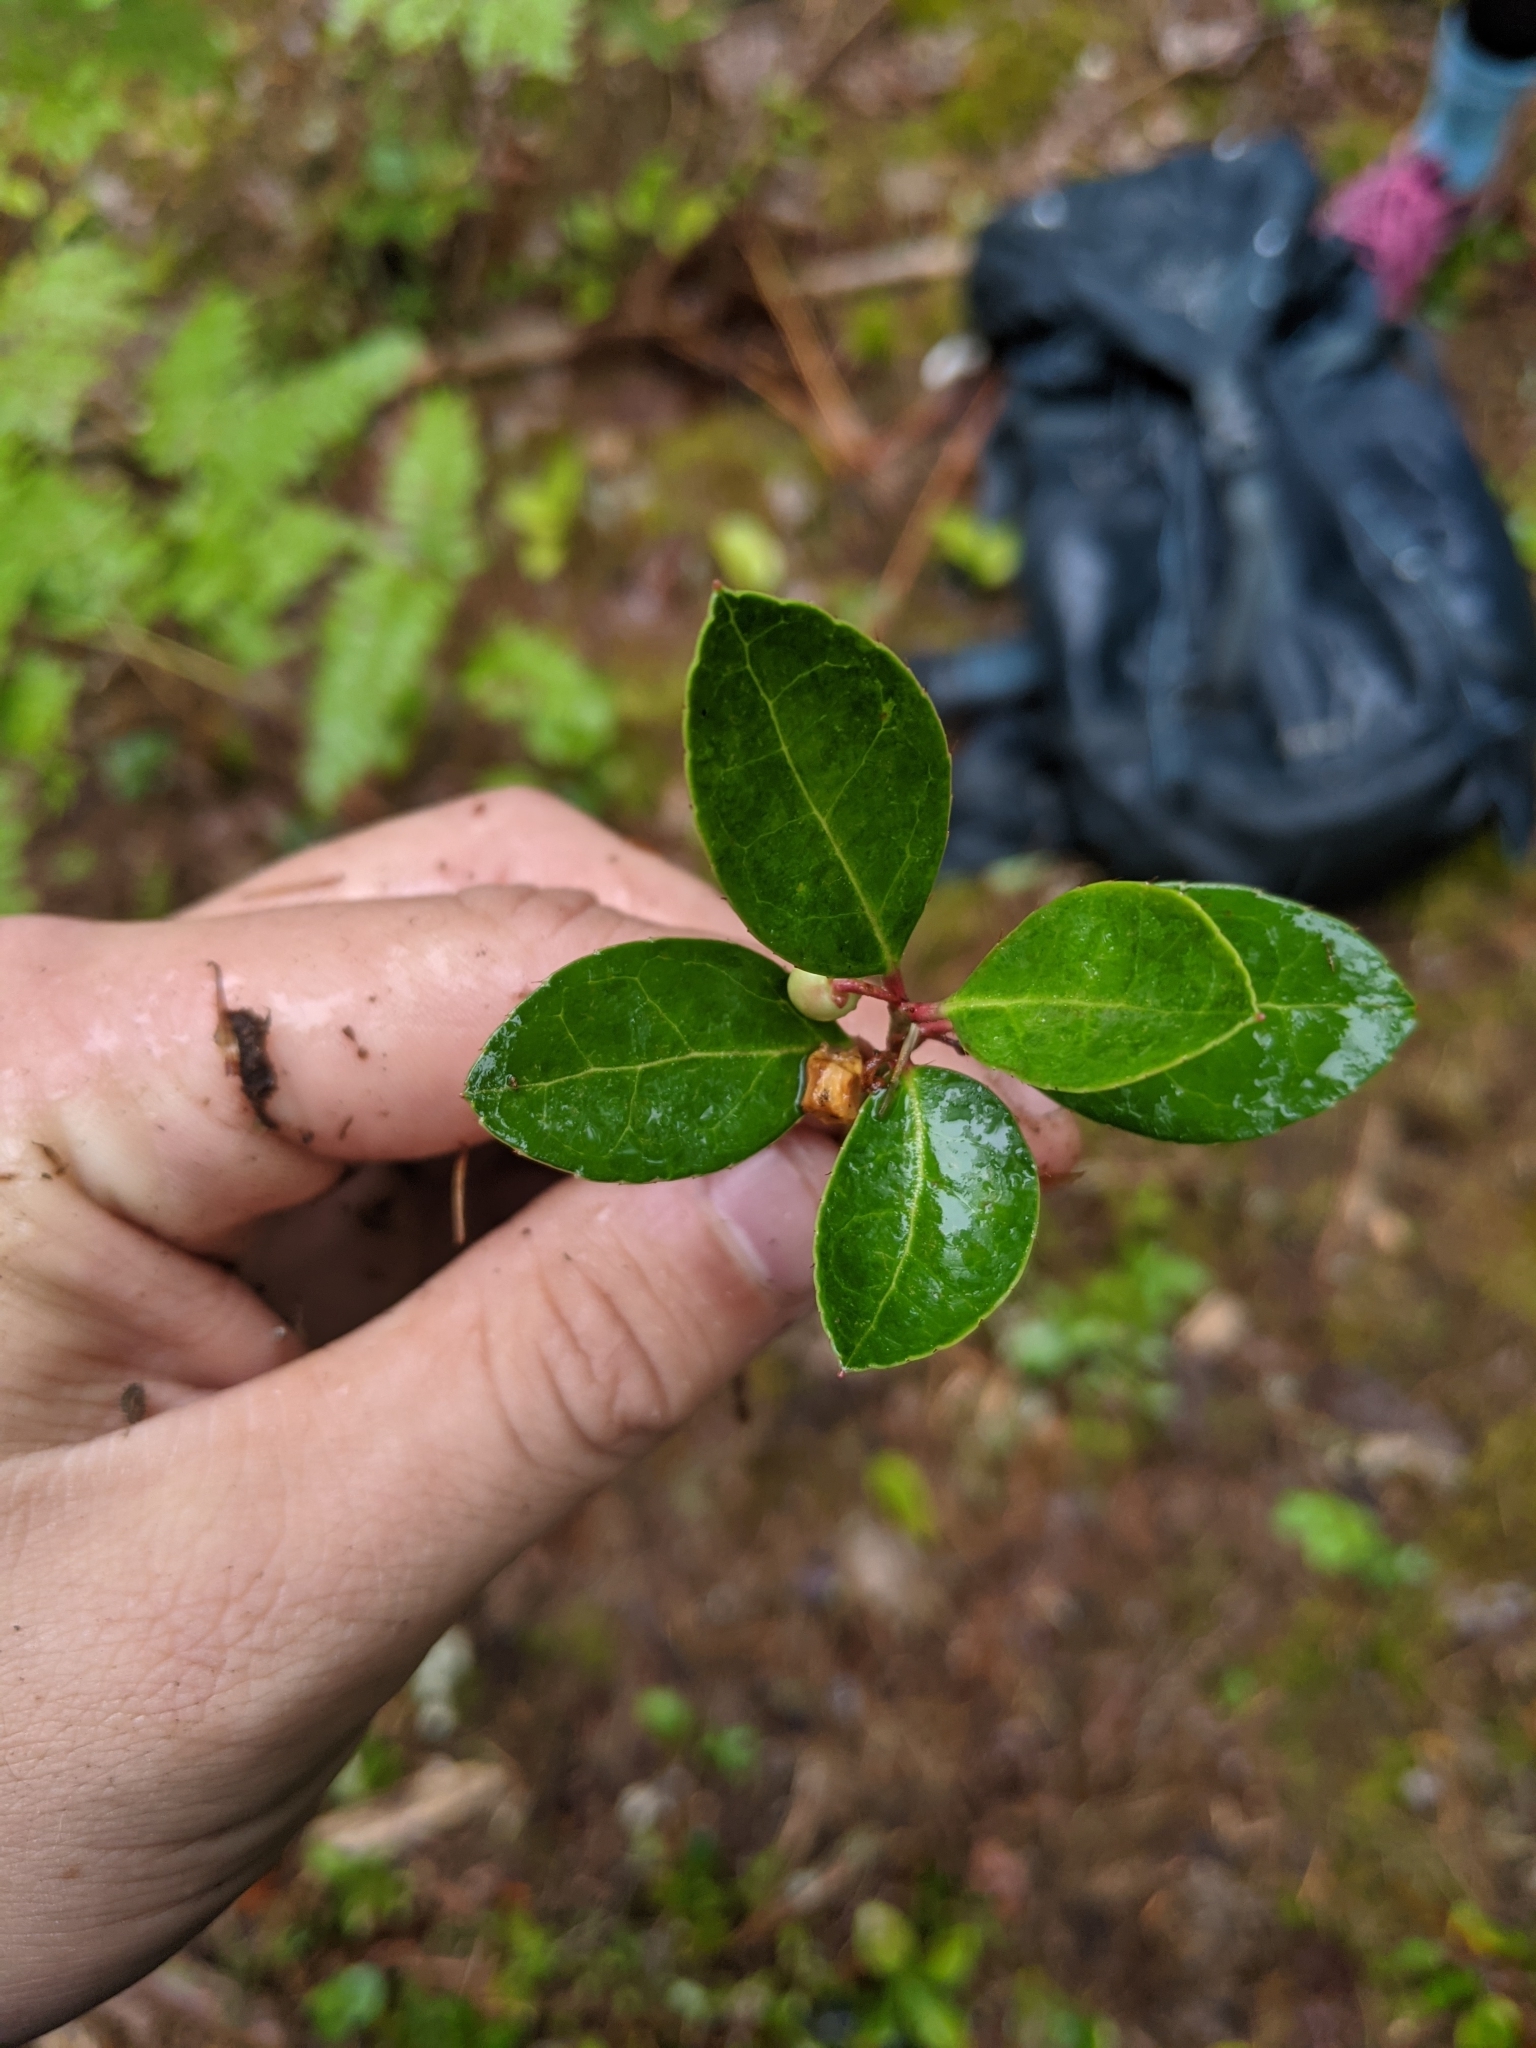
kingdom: Plantae
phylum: Tracheophyta
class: Magnoliopsida
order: Ericales
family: Ericaceae
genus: Gaultheria
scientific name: Gaultheria procumbens
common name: Checkerberry
